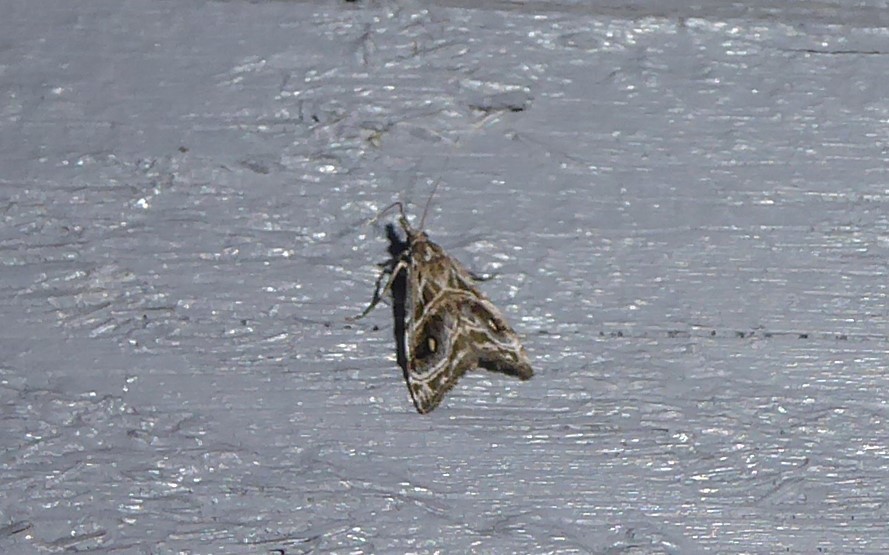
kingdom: Animalia
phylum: Arthropoda
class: Insecta
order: Lepidoptera
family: Crambidae
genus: Gadira
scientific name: Gadira acerella
